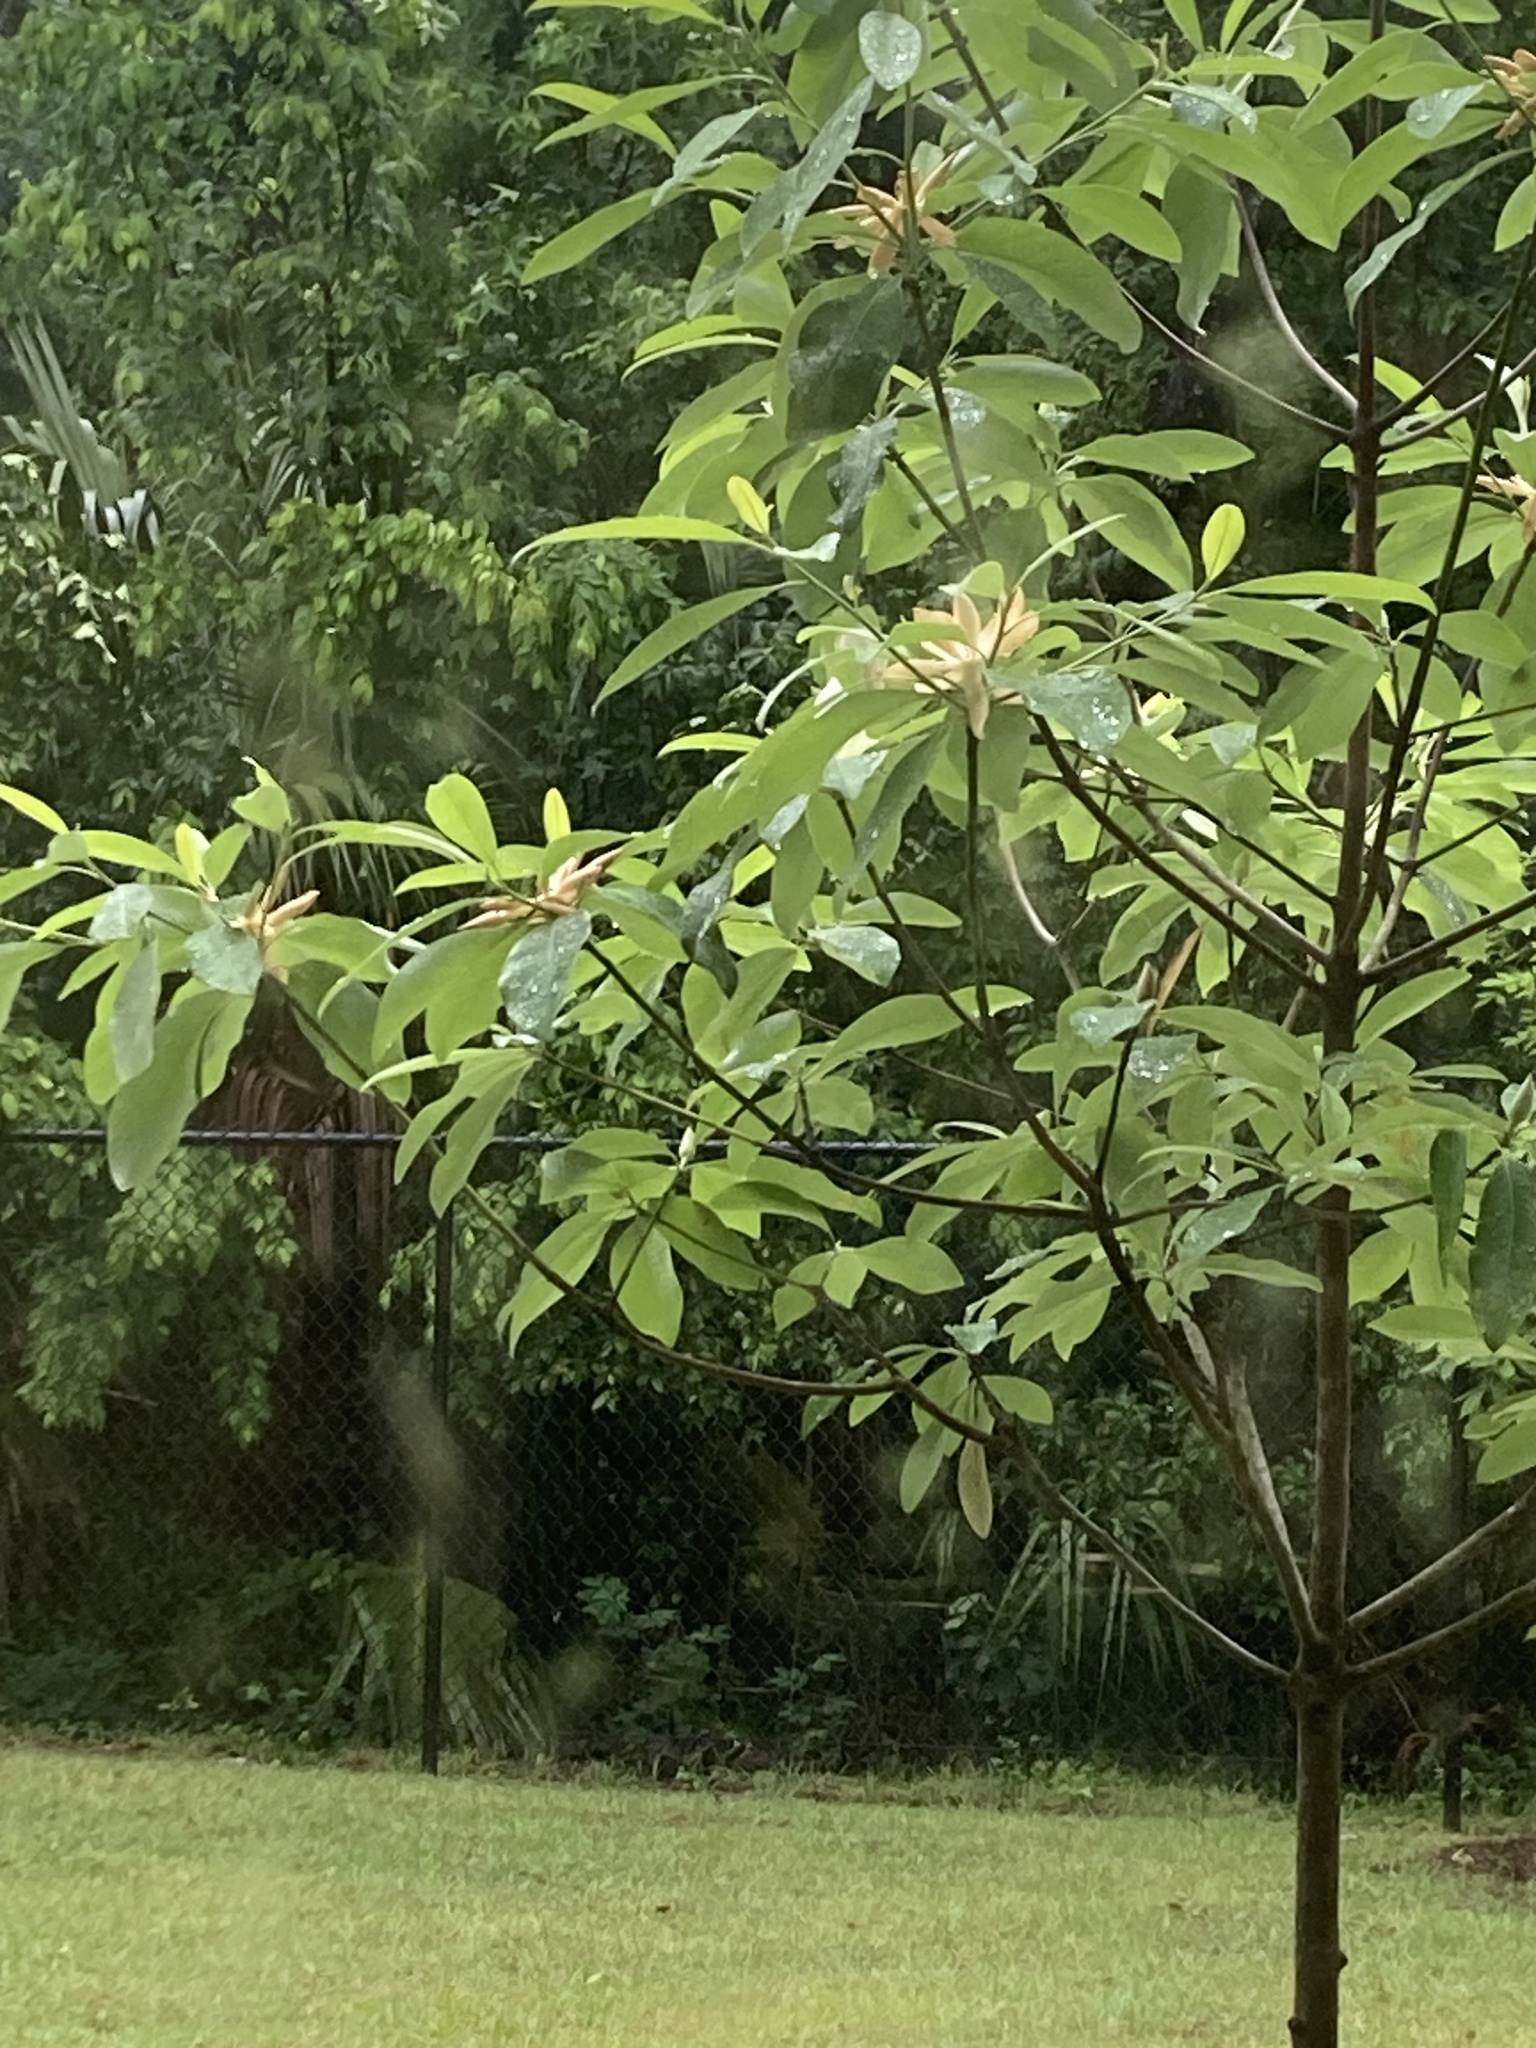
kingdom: Plantae
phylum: Tracheophyta
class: Magnoliopsida
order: Magnoliales
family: Magnoliaceae
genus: Magnolia
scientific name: Magnolia virginiana
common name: Swamp bay
